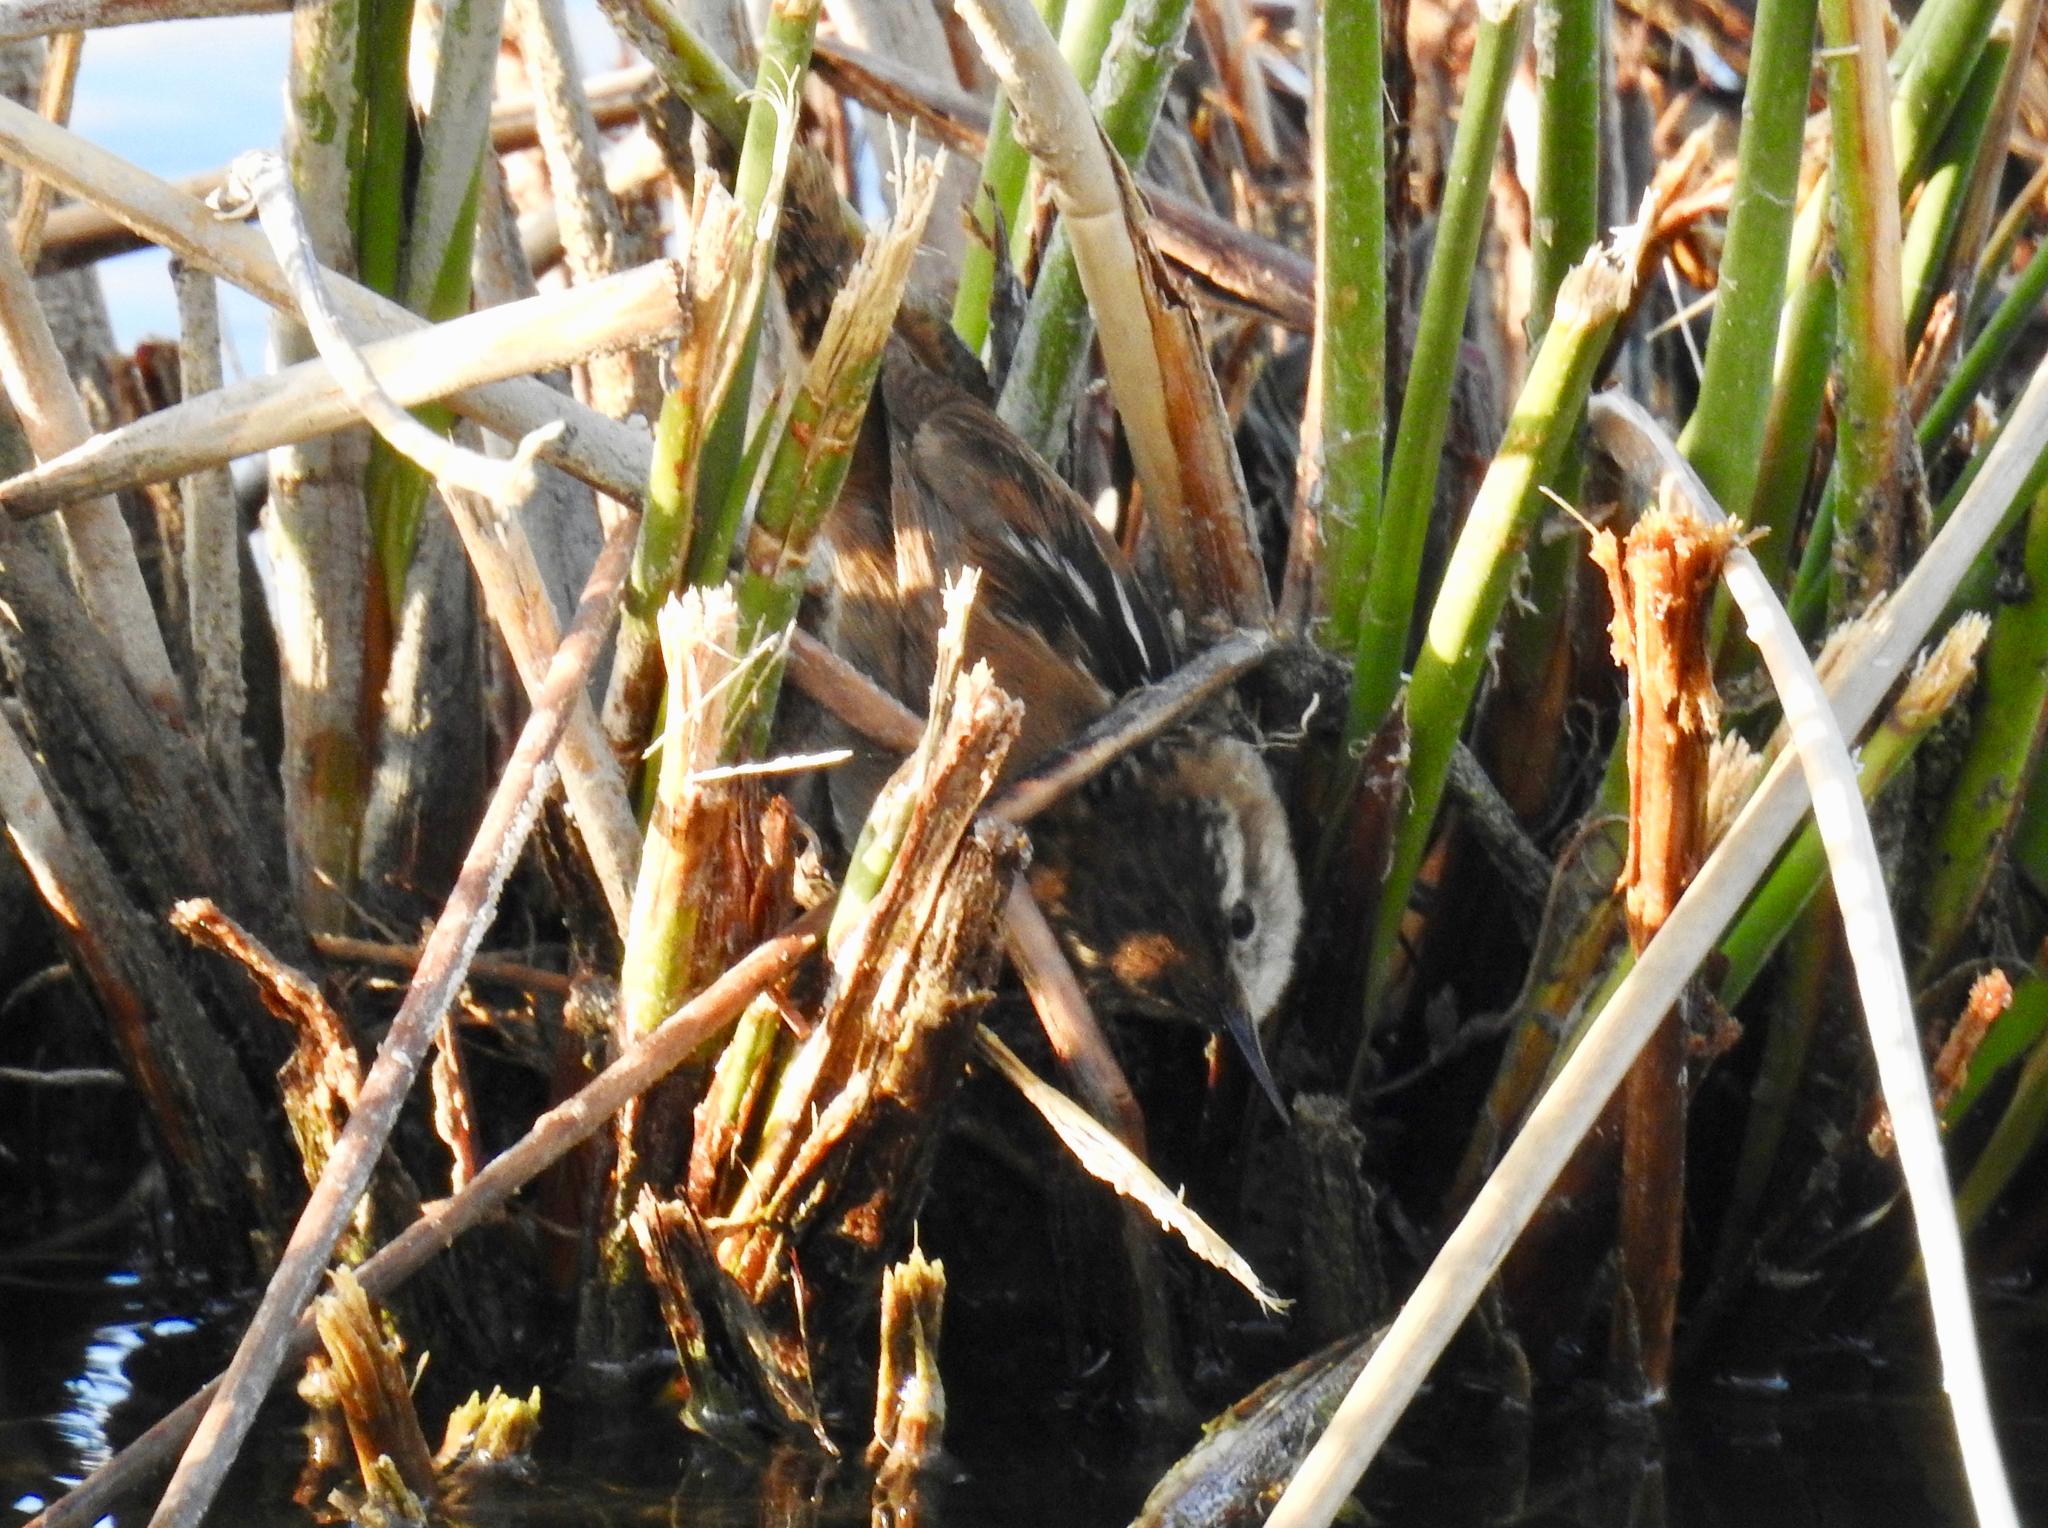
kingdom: Animalia
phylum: Chordata
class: Aves
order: Passeriformes
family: Troglodytidae
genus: Cistothorus
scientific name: Cistothorus palustris
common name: Marsh wren
